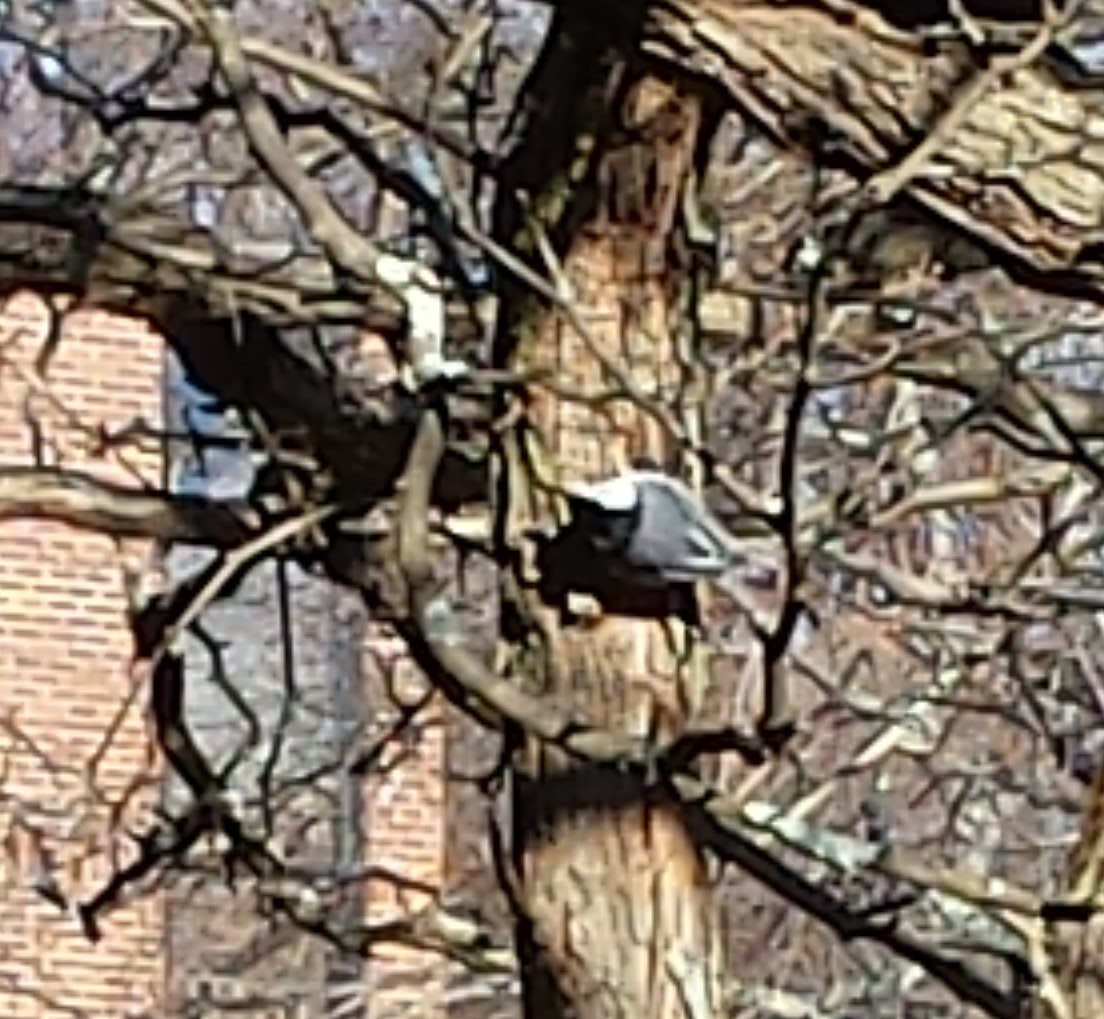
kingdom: Animalia
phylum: Chordata
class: Aves
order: Passeriformes
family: Sittidae
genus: Sitta
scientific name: Sitta carolinensis
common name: White-breasted nuthatch
